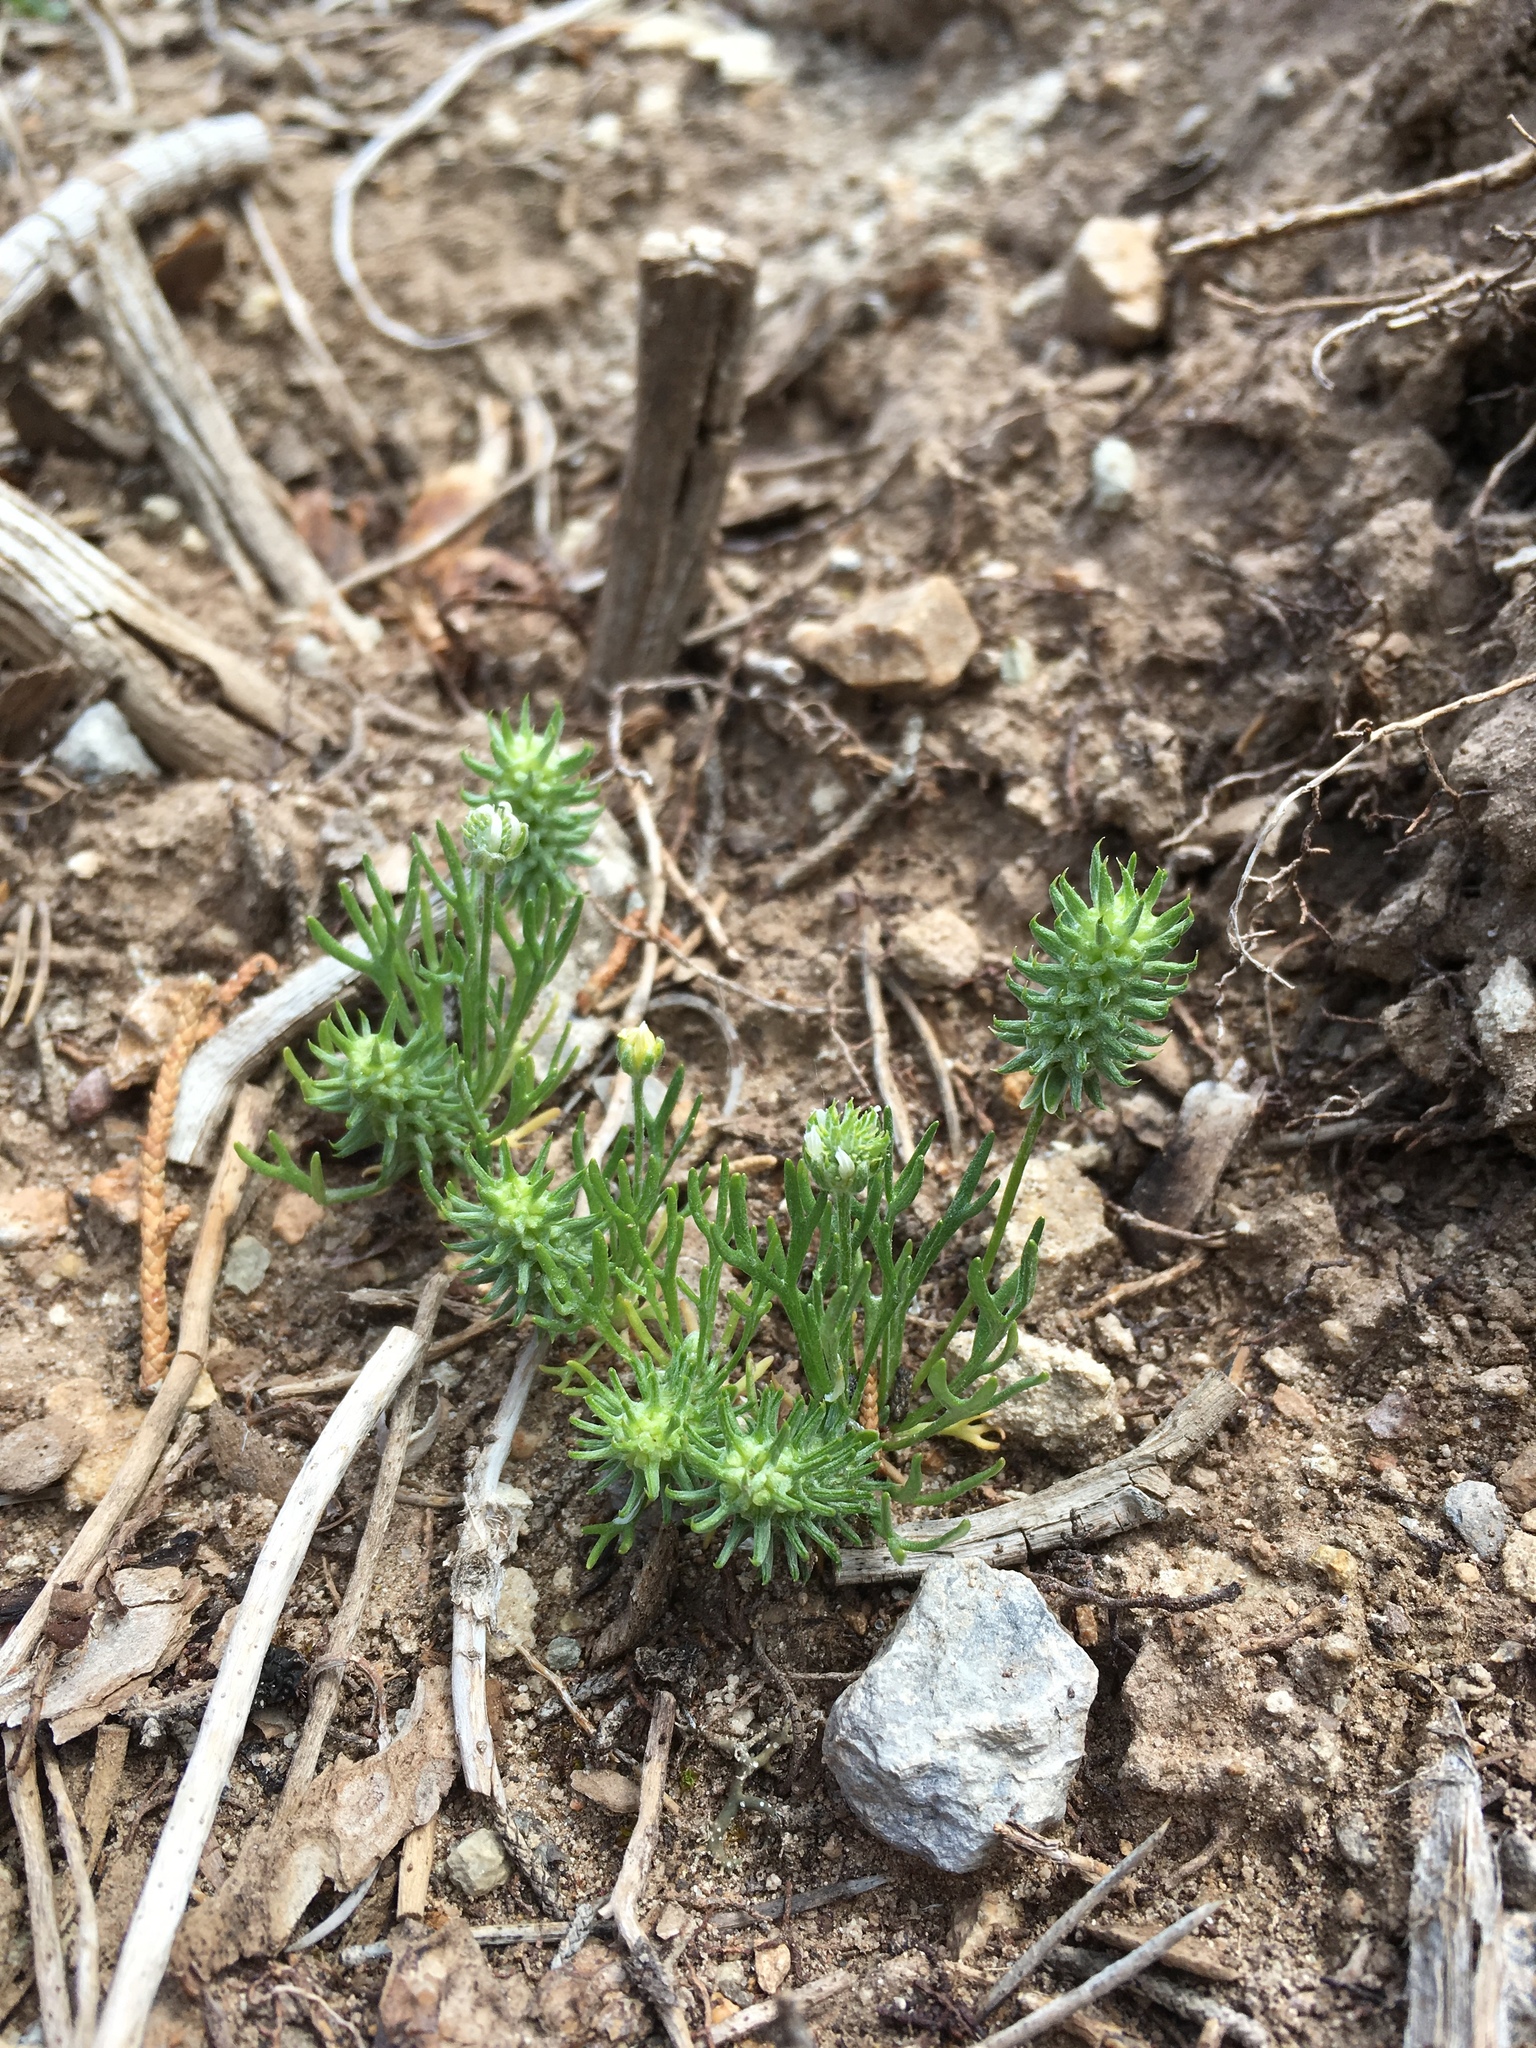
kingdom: Plantae
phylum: Tracheophyta
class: Magnoliopsida
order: Ranunculales
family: Ranunculaceae
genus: Ceratocephala
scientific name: Ceratocephala orthoceras
